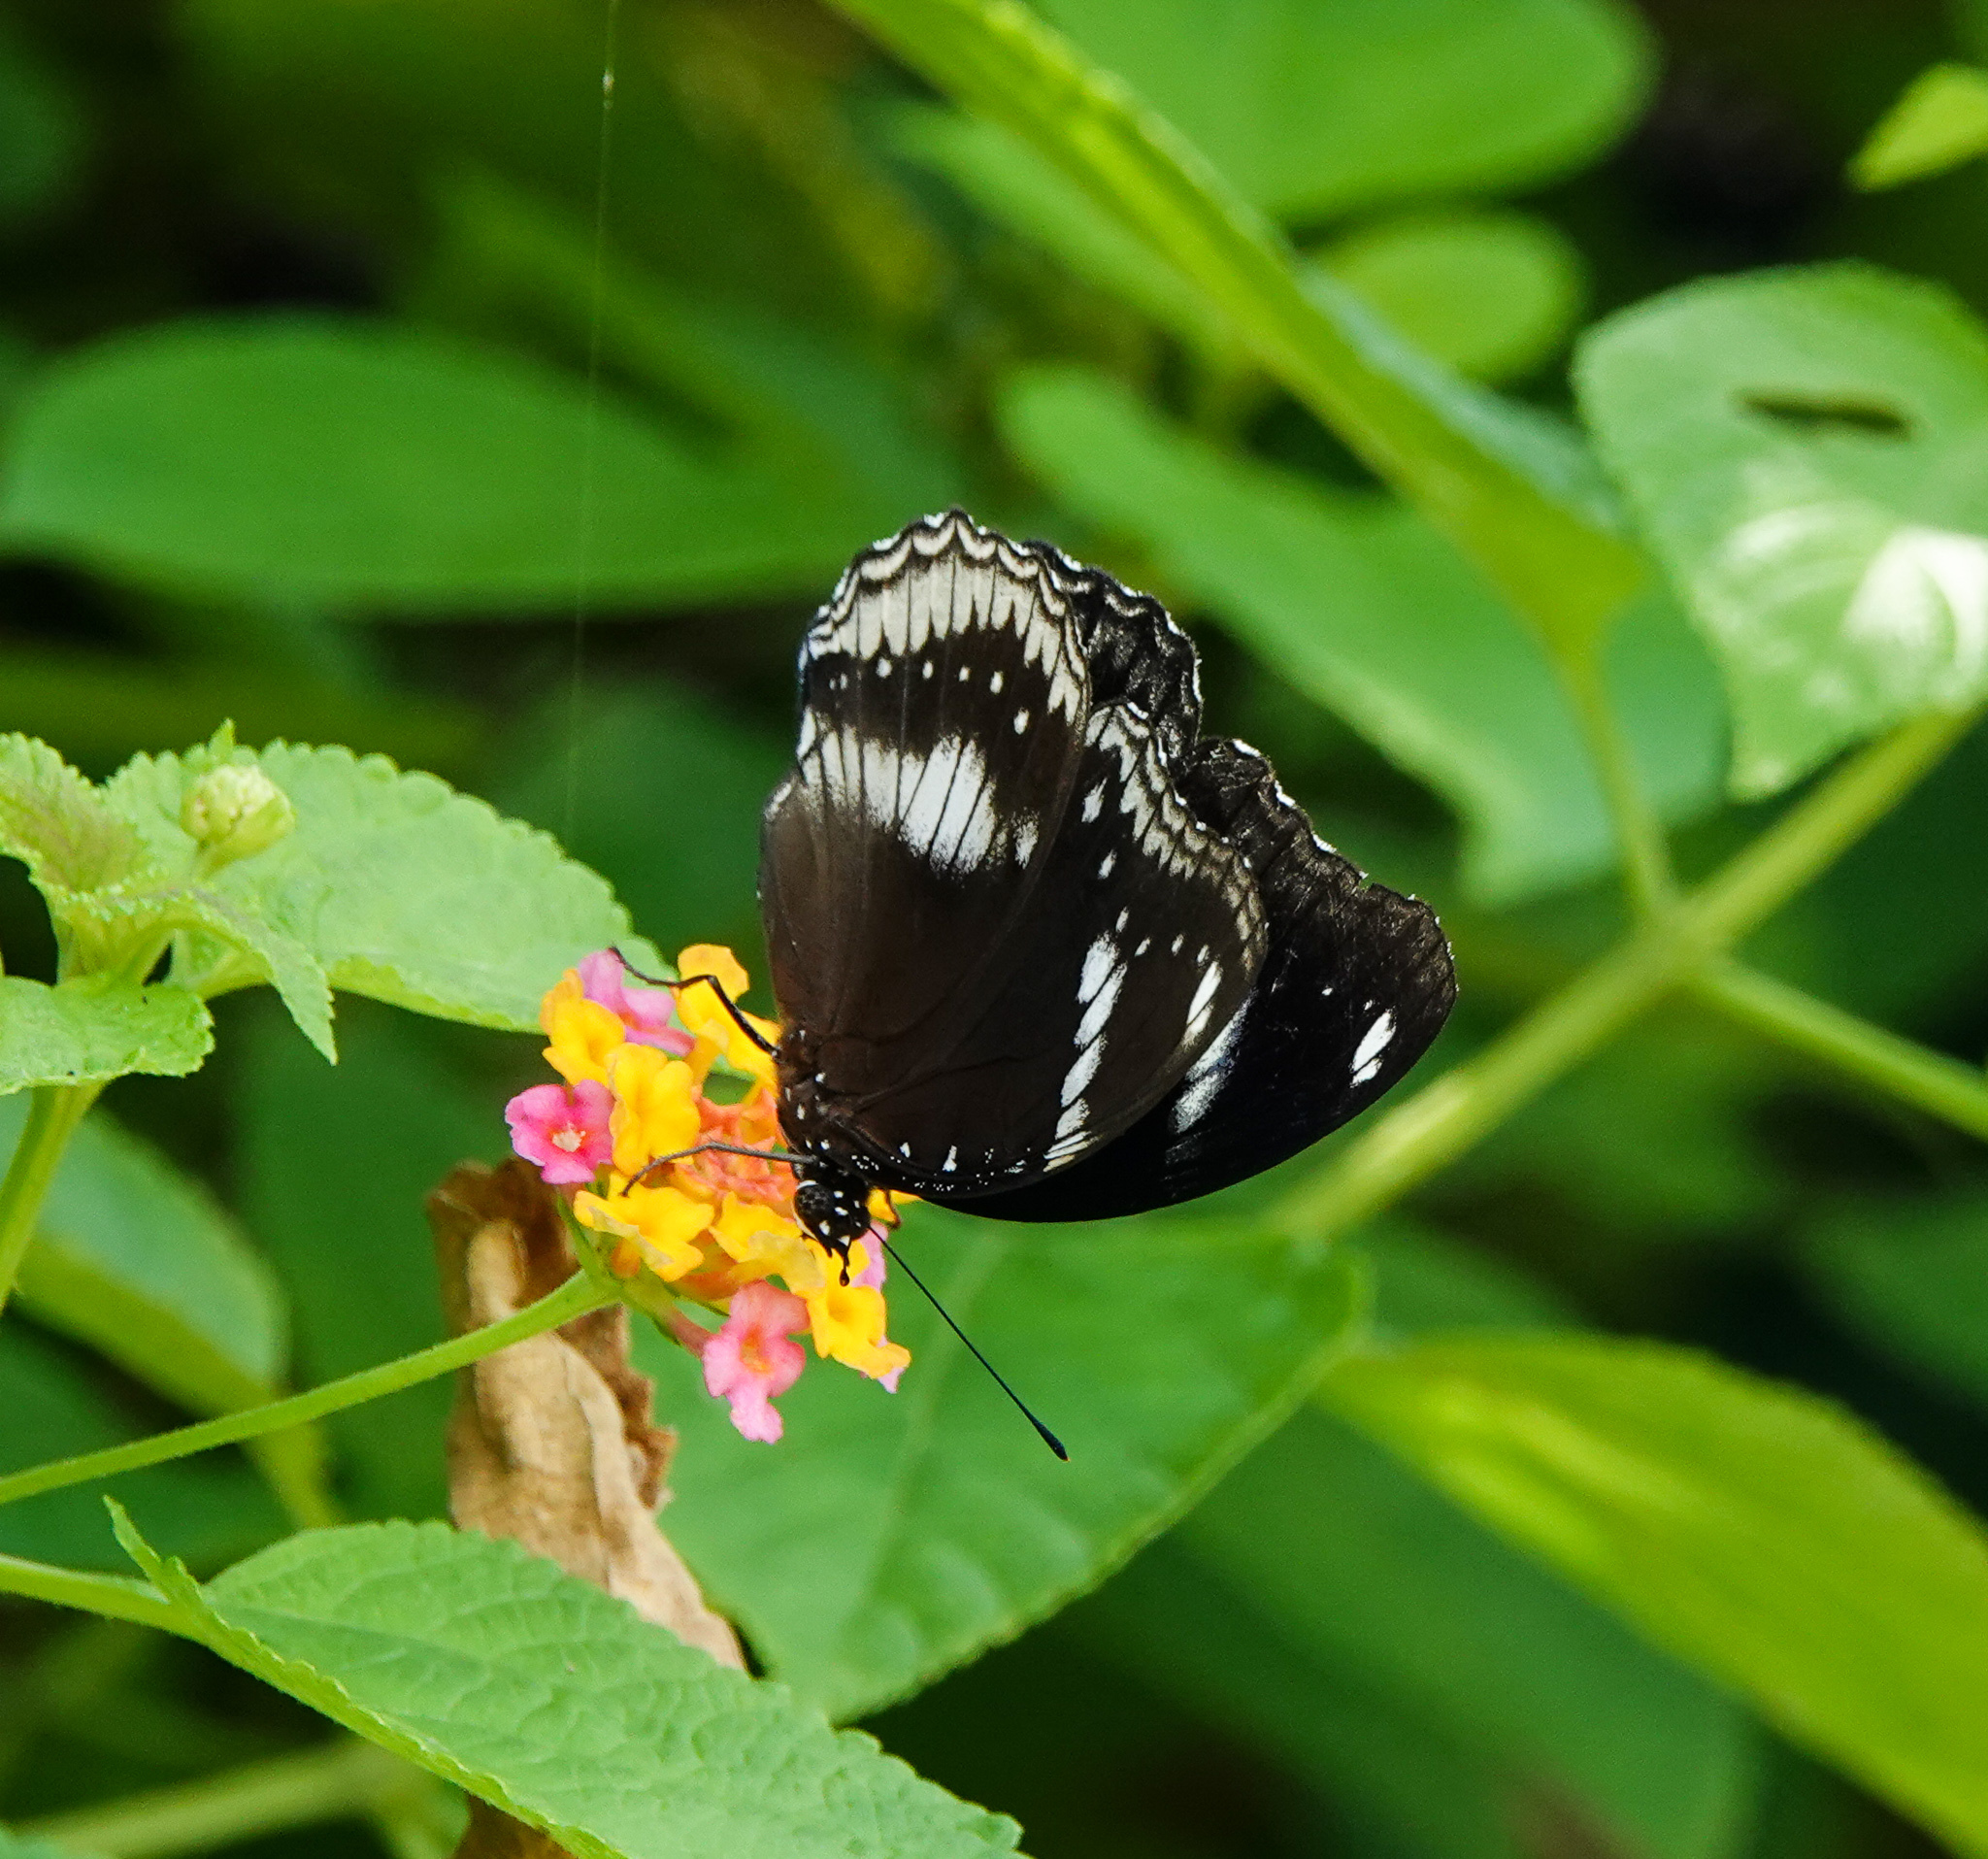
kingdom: Animalia
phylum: Arthropoda
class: Insecta
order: Lepidoptera
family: Nymphalidae
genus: Hypolimnas
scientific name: Hypolimnas bolina
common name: Great eggfly
